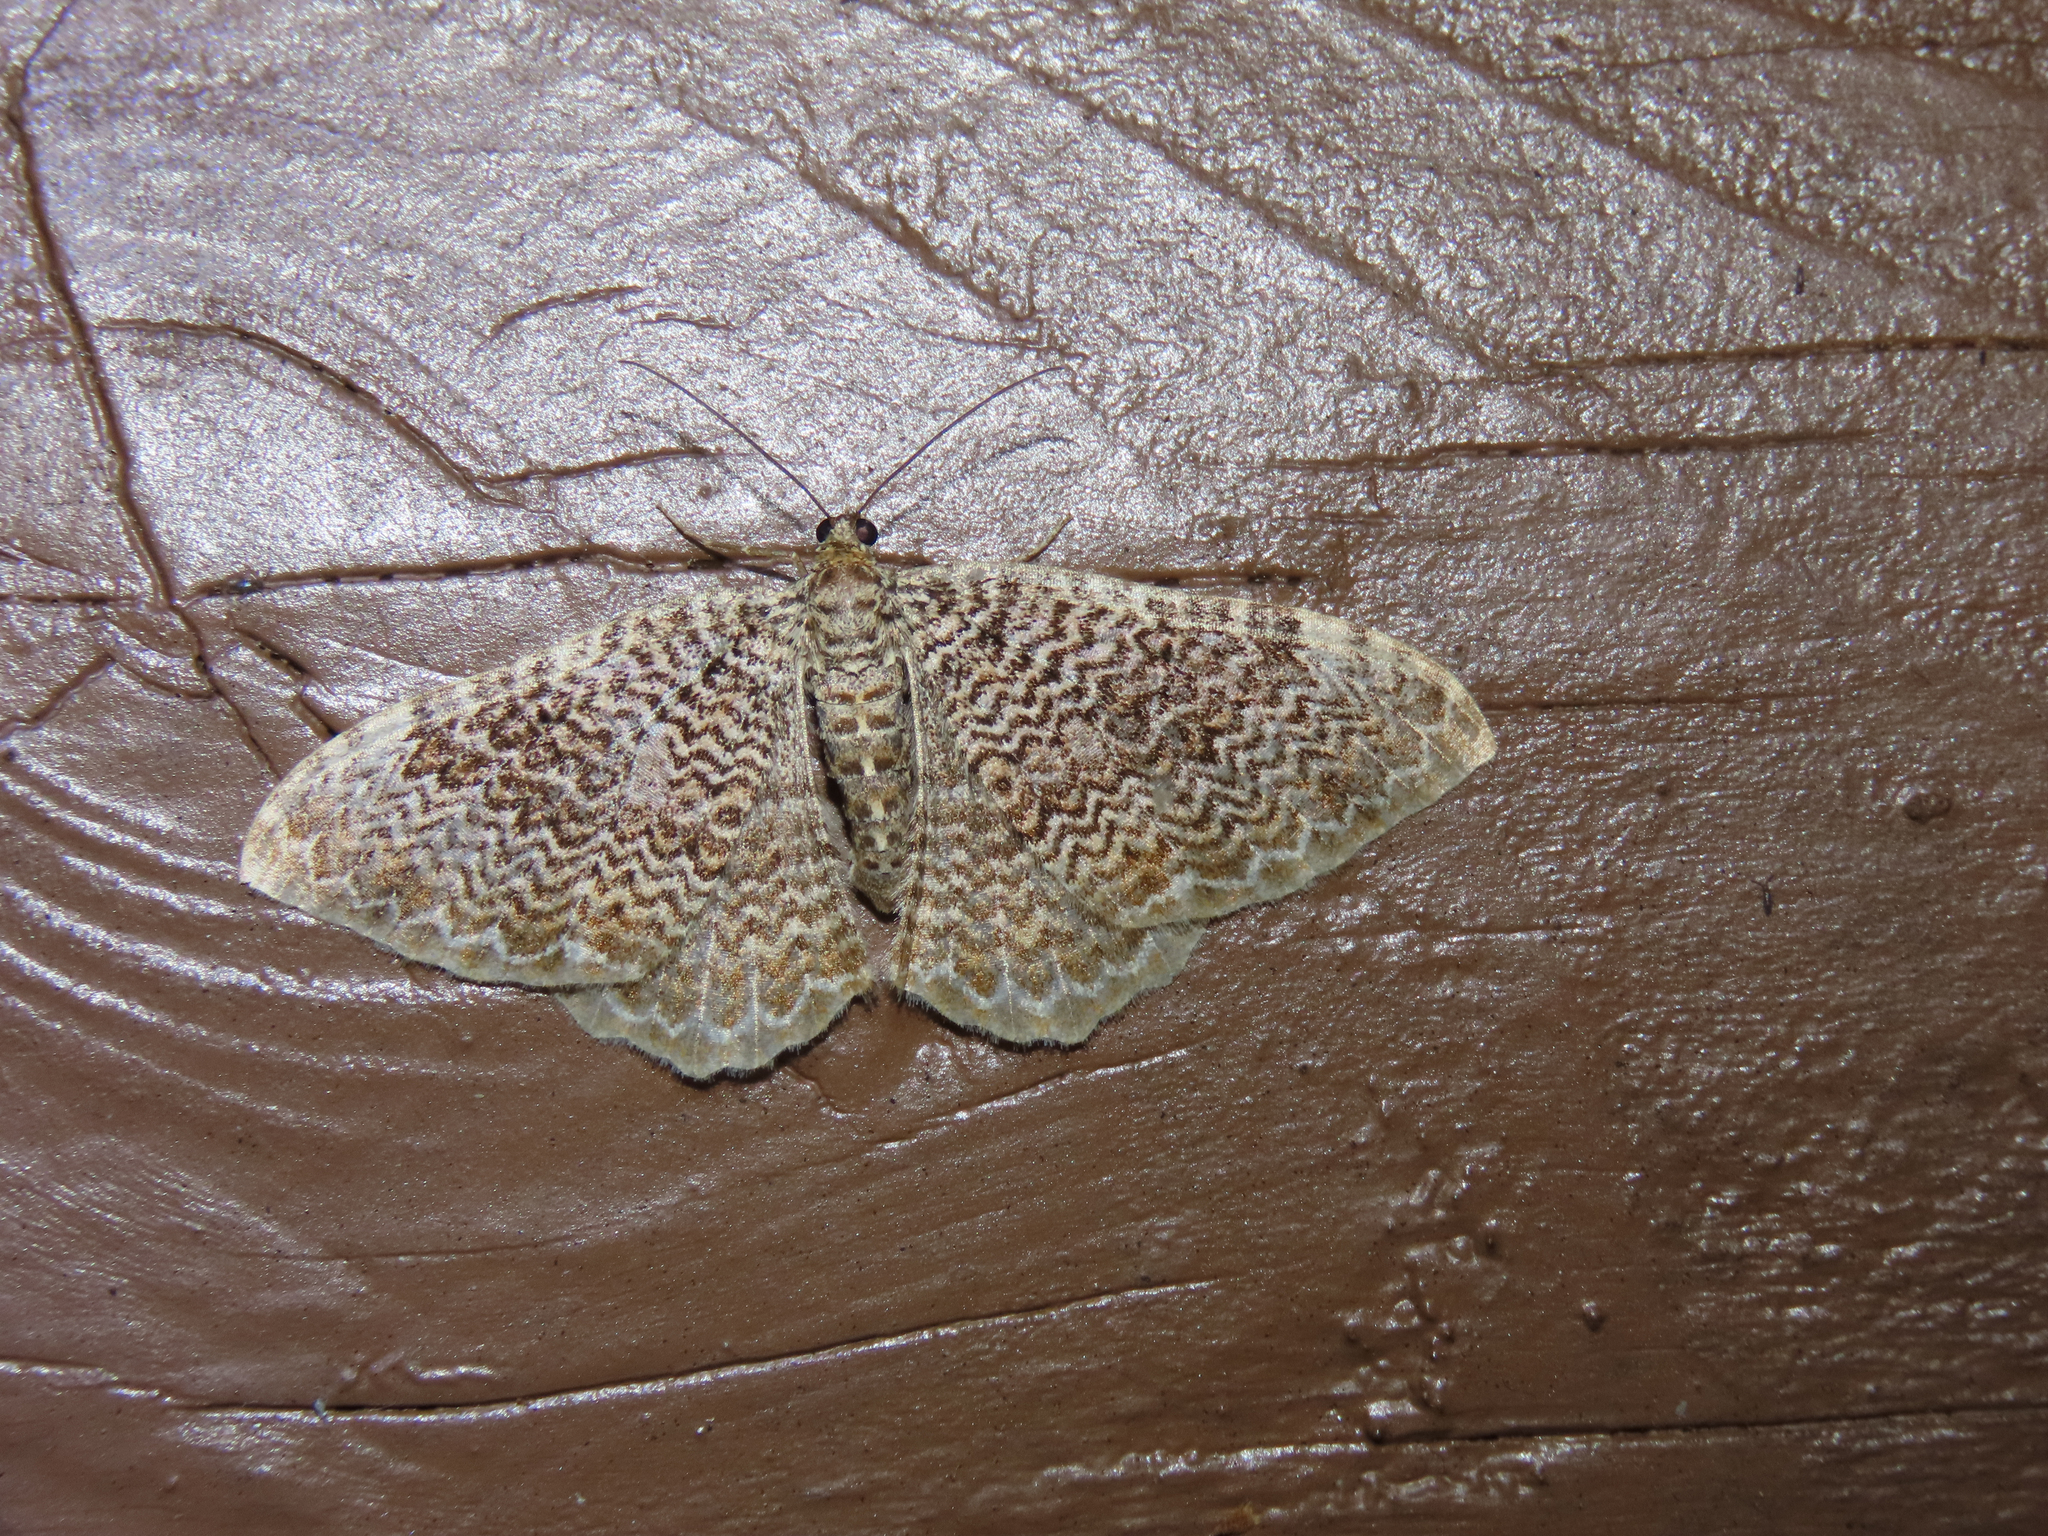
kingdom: Animalia
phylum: Arthropoda
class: Insecta
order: Lepidoptera
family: Geometridae
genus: Rheumaptera
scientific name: Rheumaptera
